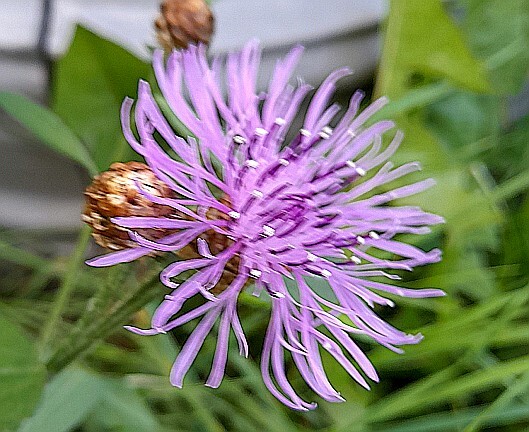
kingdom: Plantae
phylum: Tracheophyta
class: Magnoliopsida
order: Asterales
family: Asteraceae
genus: Centaurea
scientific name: Centaurea jacea
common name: Brown knapweed
